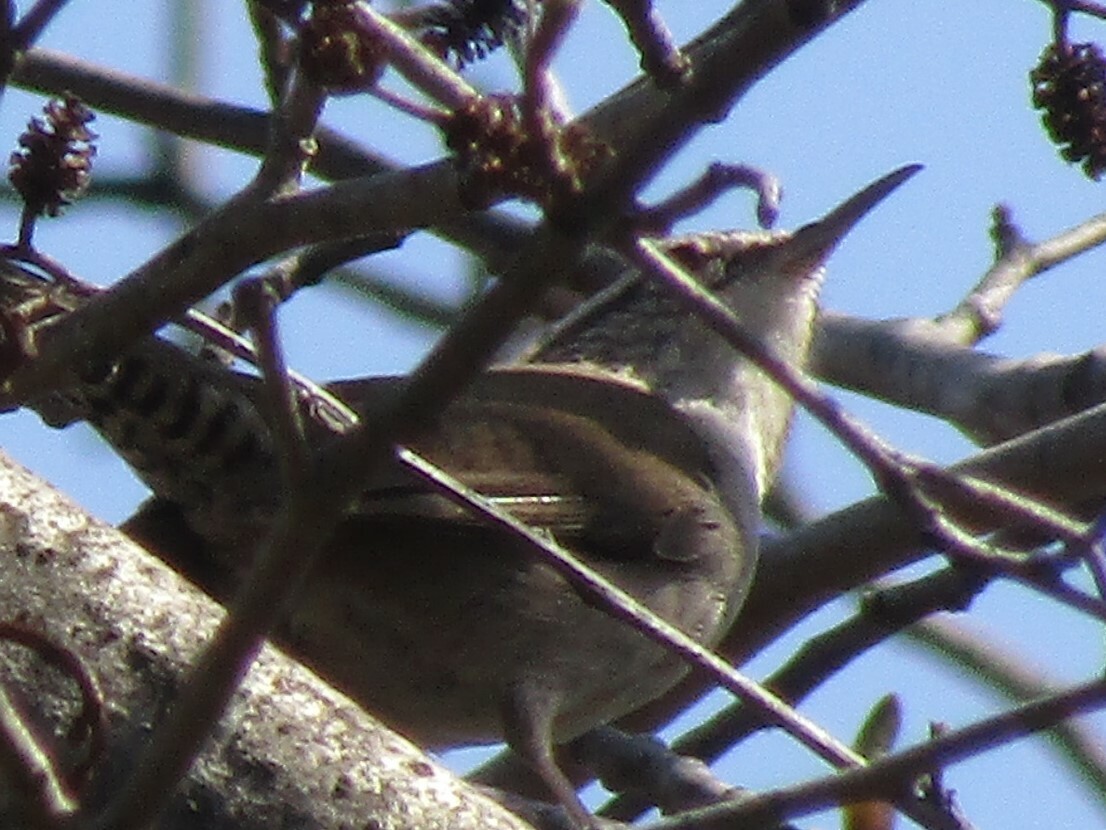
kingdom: Animalia
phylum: Chordata
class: Aves
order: Passeriformes
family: Troglodytidae
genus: Thryomanes
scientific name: Thryomanes bewickii
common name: Bewick's wren
